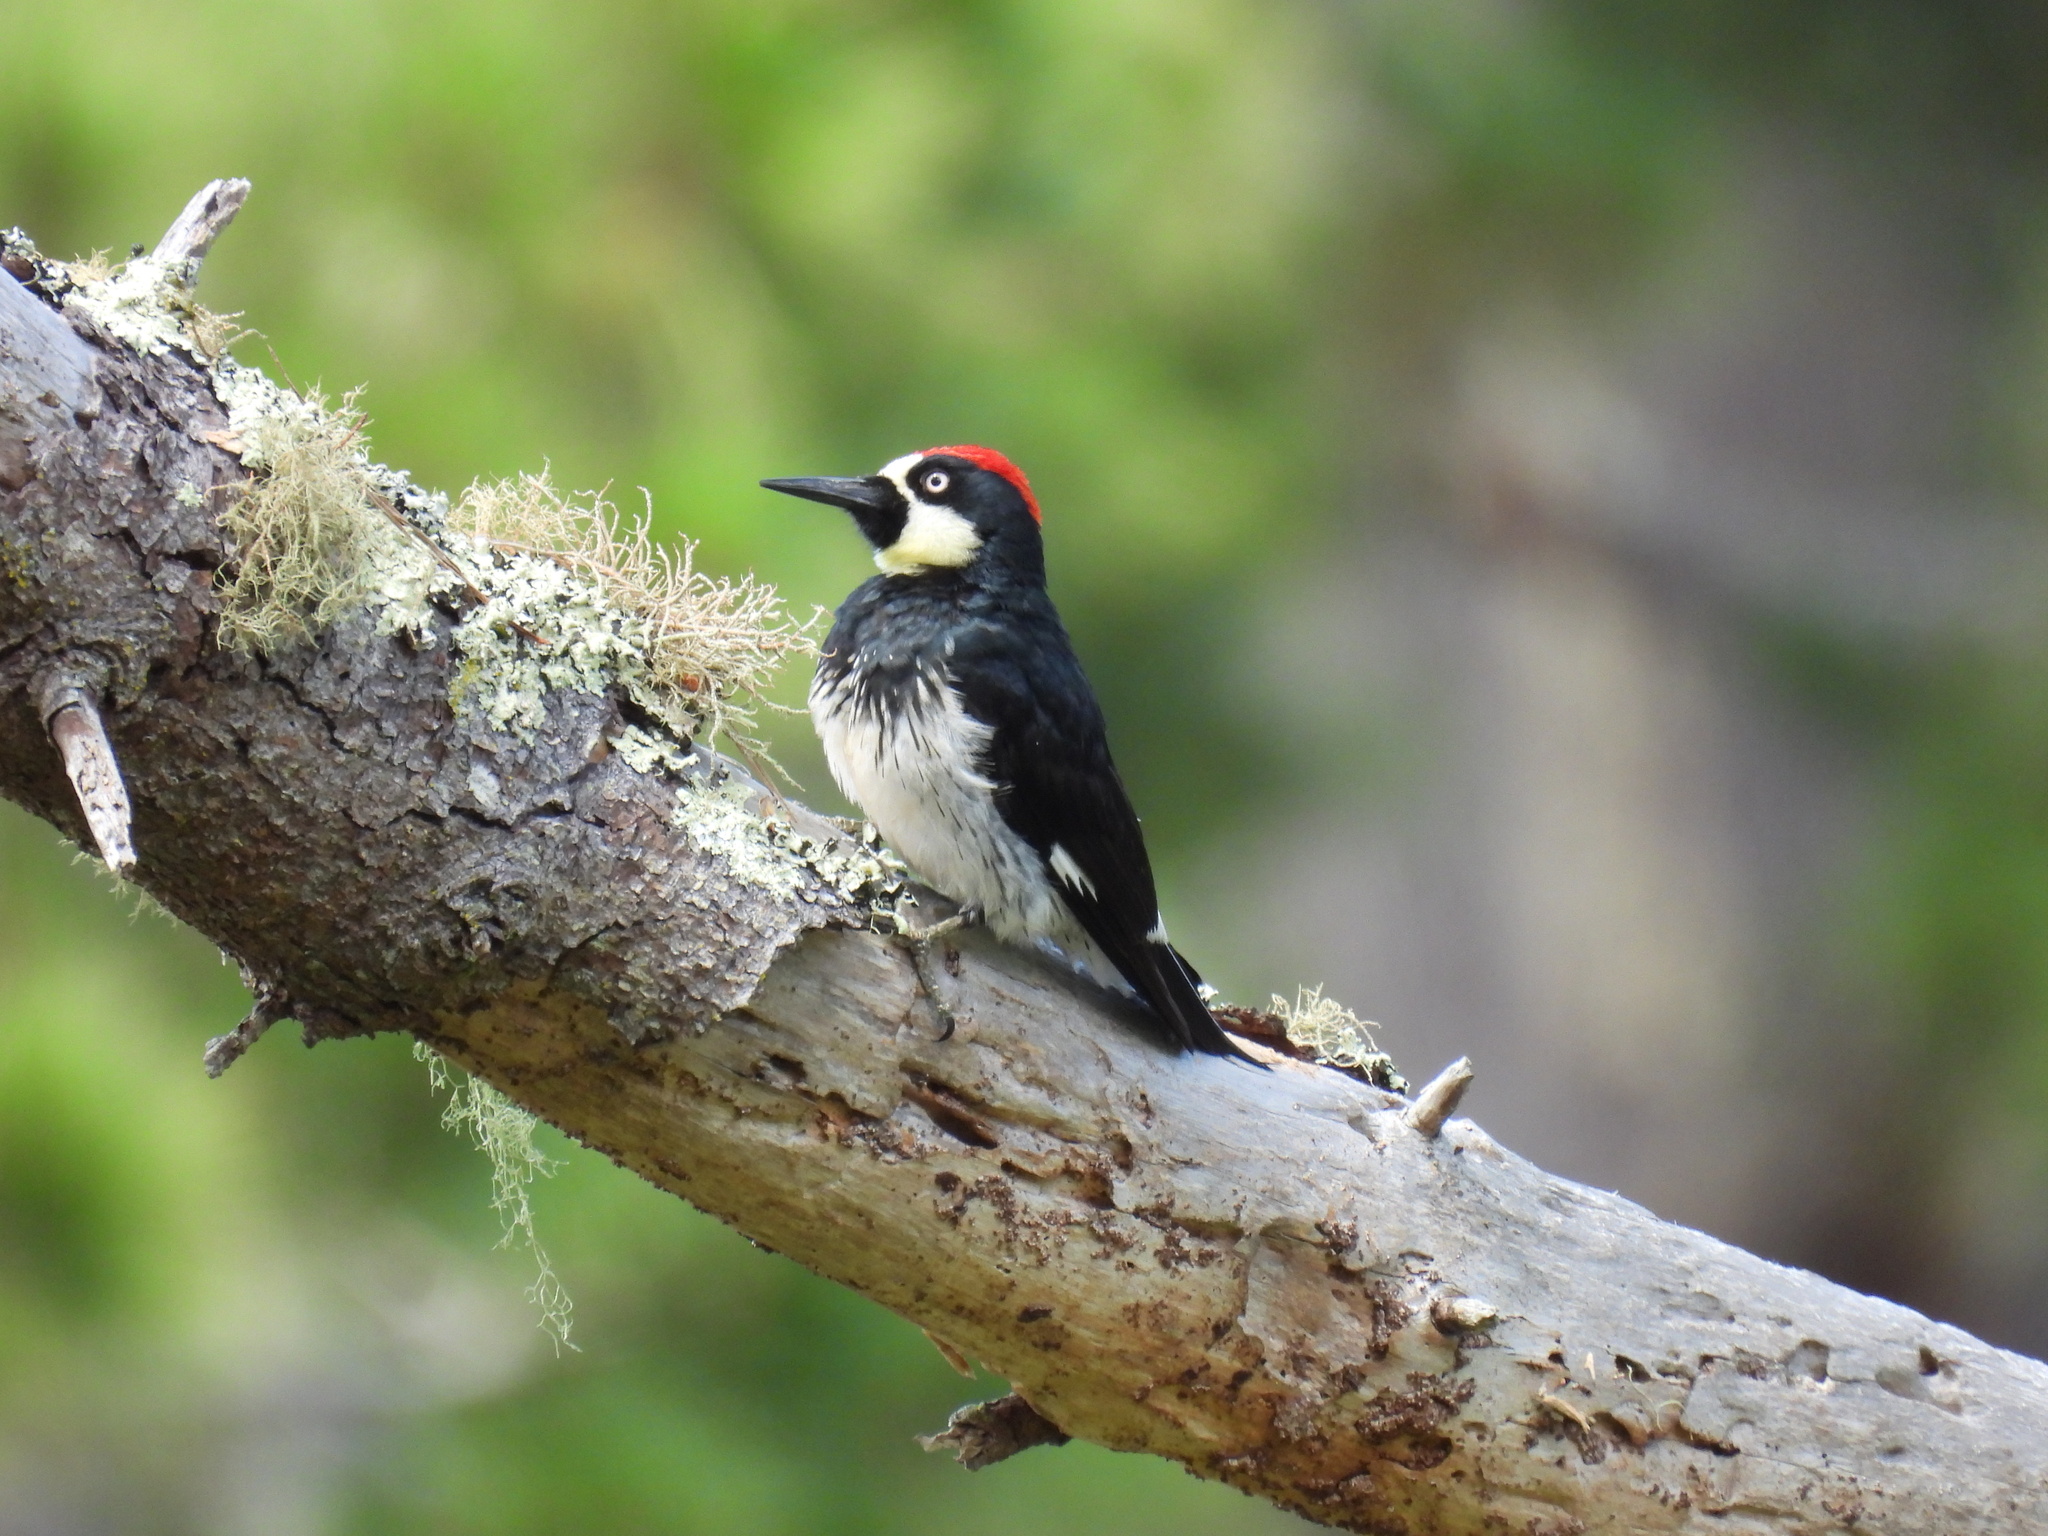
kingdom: Animalia
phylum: Chordata
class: Aves
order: Piciformes
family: Picidae
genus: Melanerpes
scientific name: Melanerpes formicivorus
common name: Acorn woodpecker
